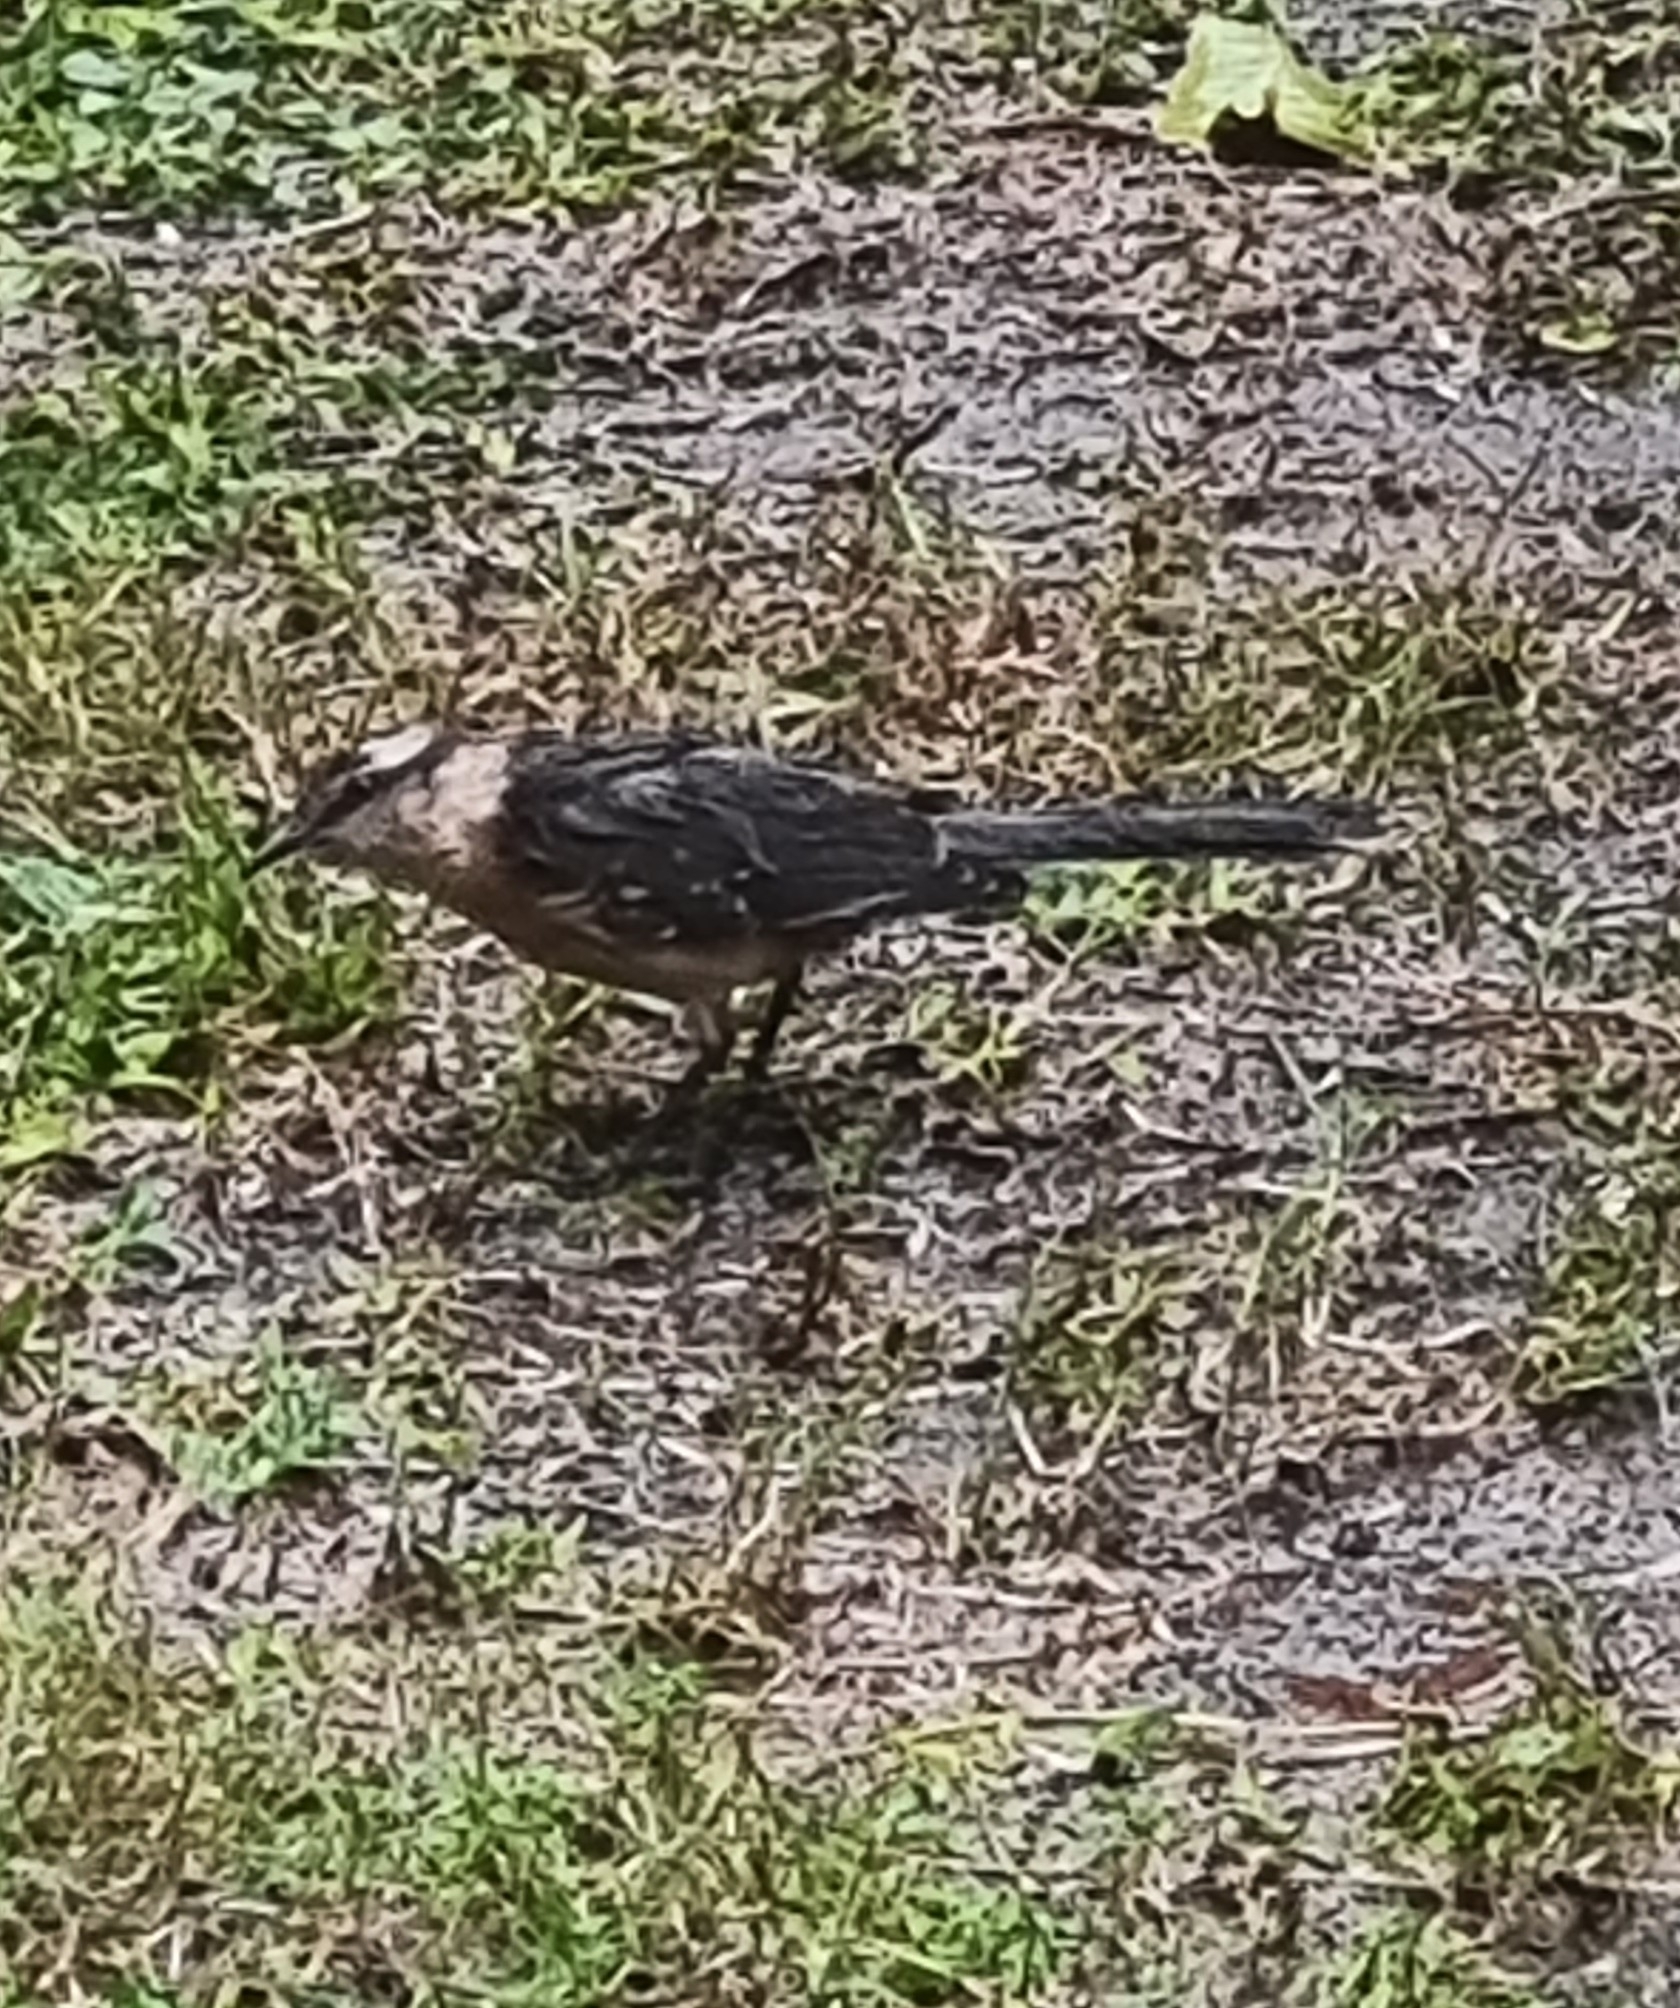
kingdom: Animalia
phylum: Chordata
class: Aves
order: Passeriformes
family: Mimidae
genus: Mimus
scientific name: Mimus saturninus
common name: Chalk-browed mockingbird
